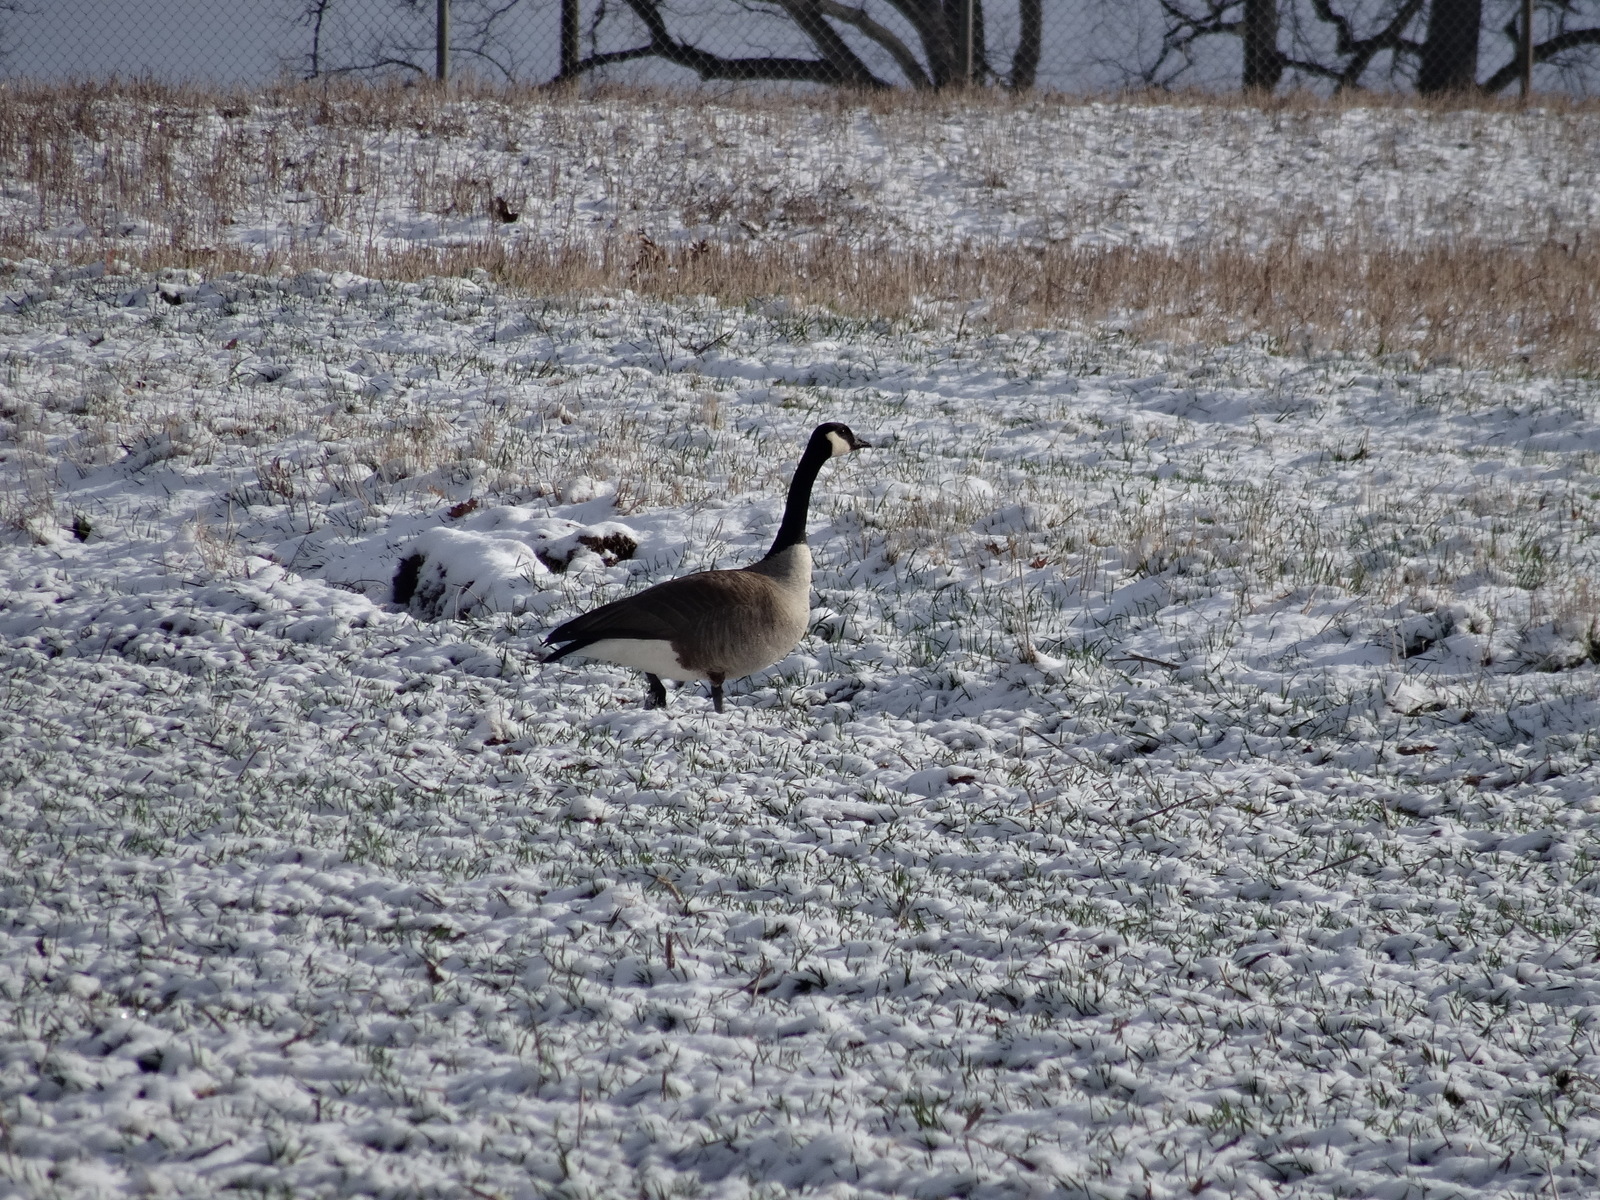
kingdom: Animalia
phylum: Chordata
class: Aves
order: Anseriformes
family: Anatidae
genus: Branta
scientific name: Branta canadensis
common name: Canada goose
